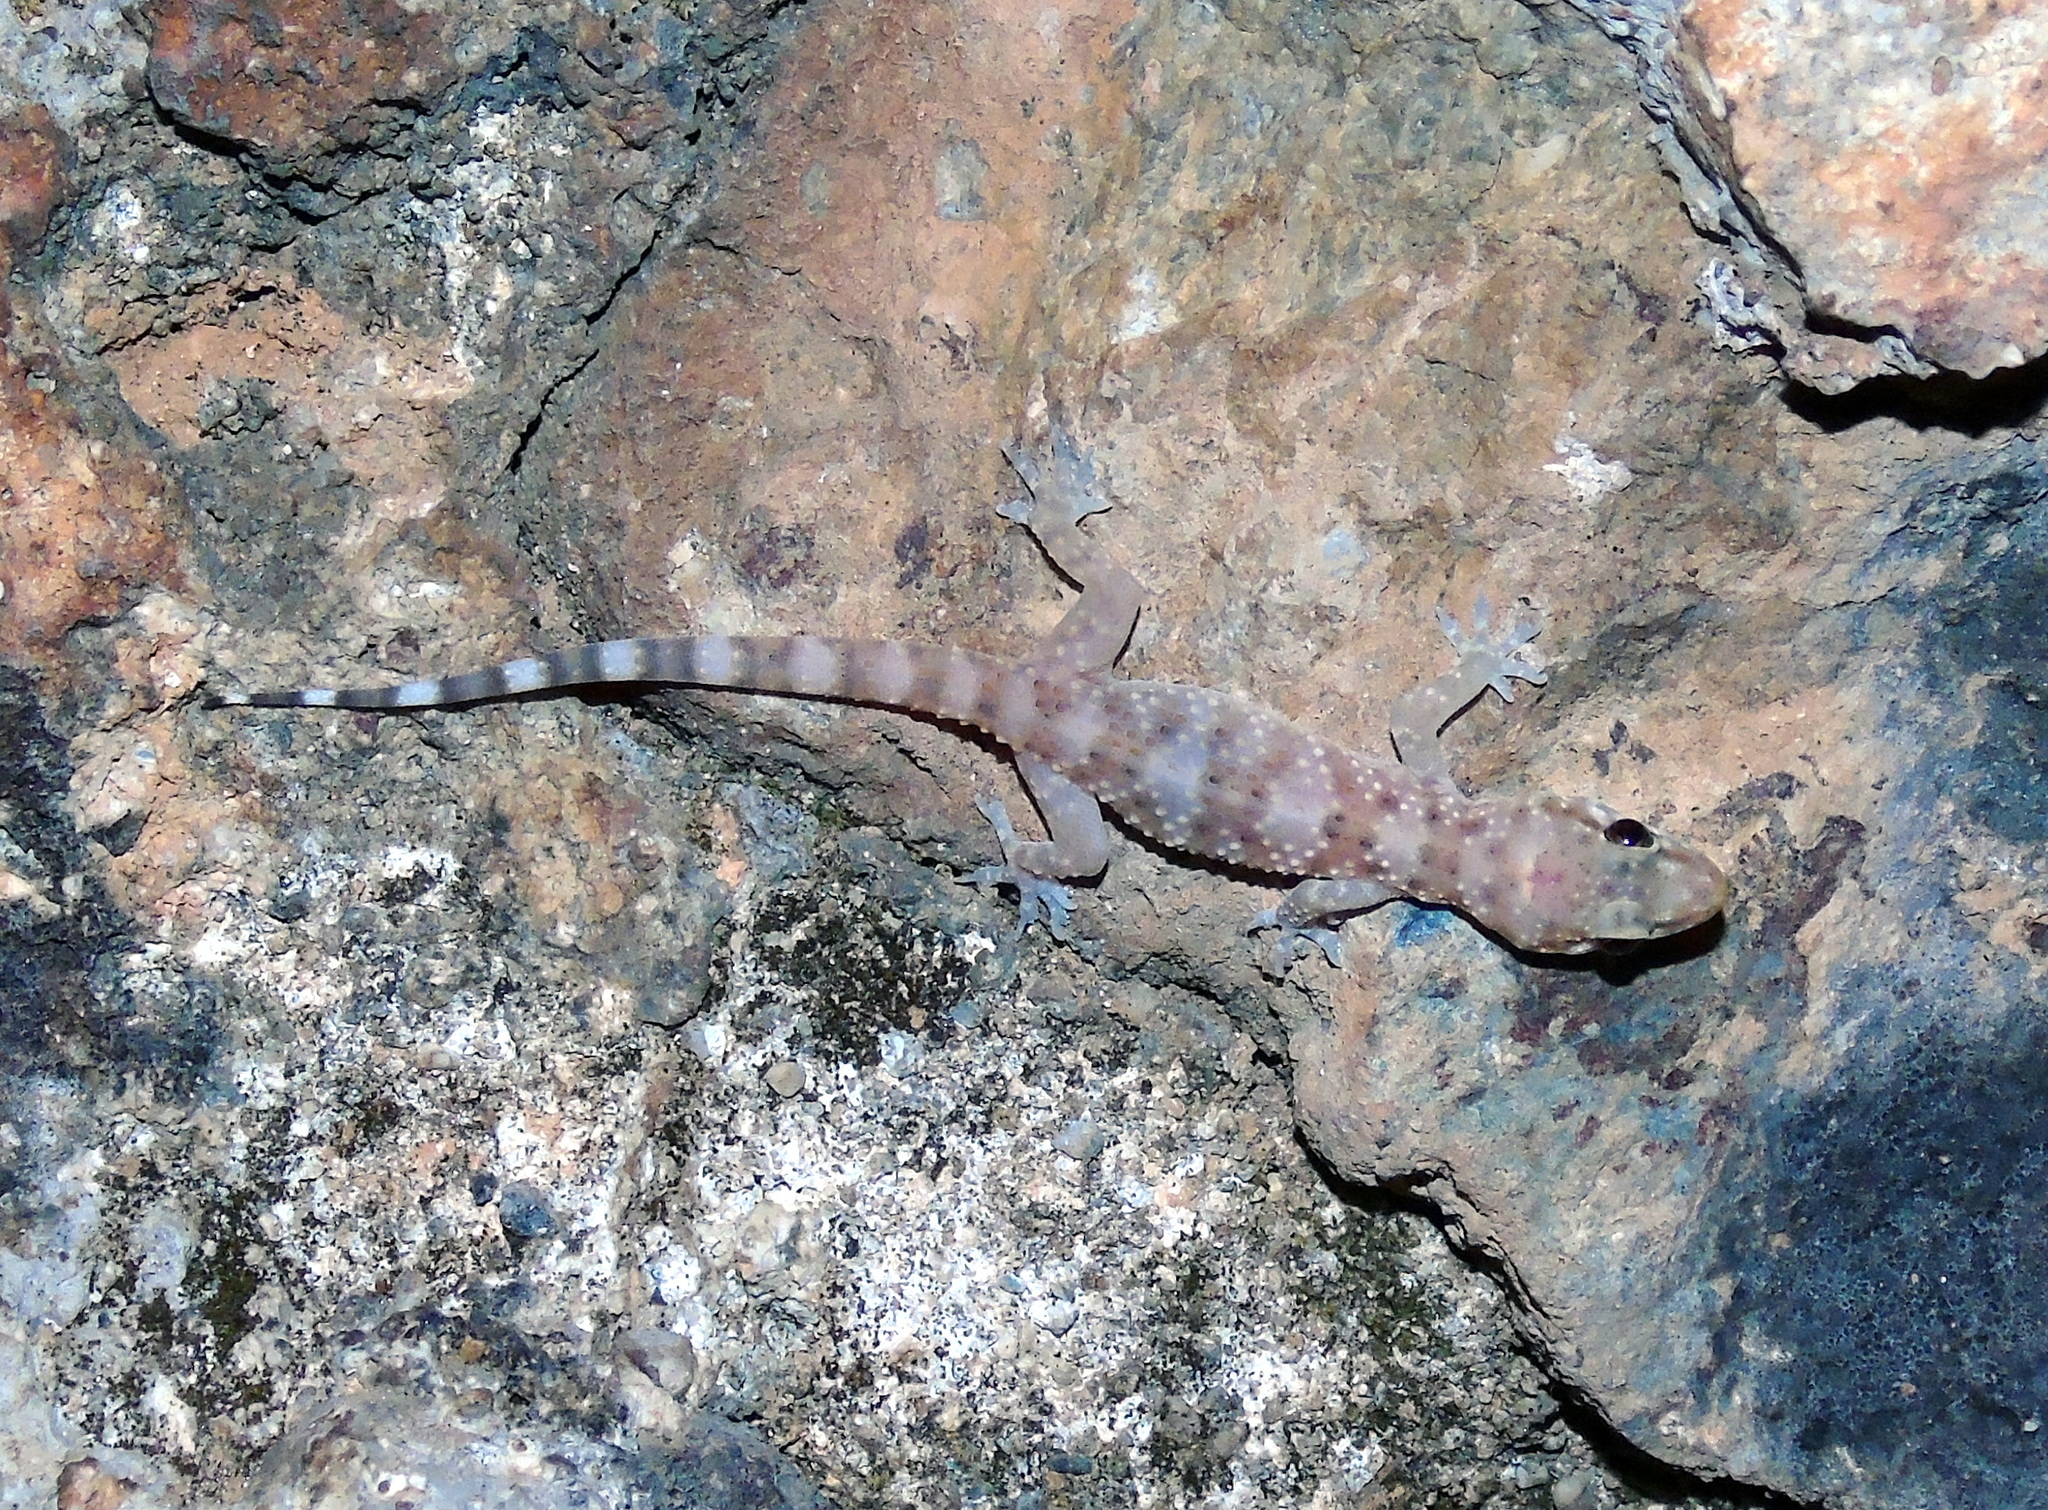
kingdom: Animalia
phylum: Chordata
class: Squamata
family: Gekkonidae
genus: Hemidactylus
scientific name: Hemidactylus turcicus
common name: Turkish gecko
